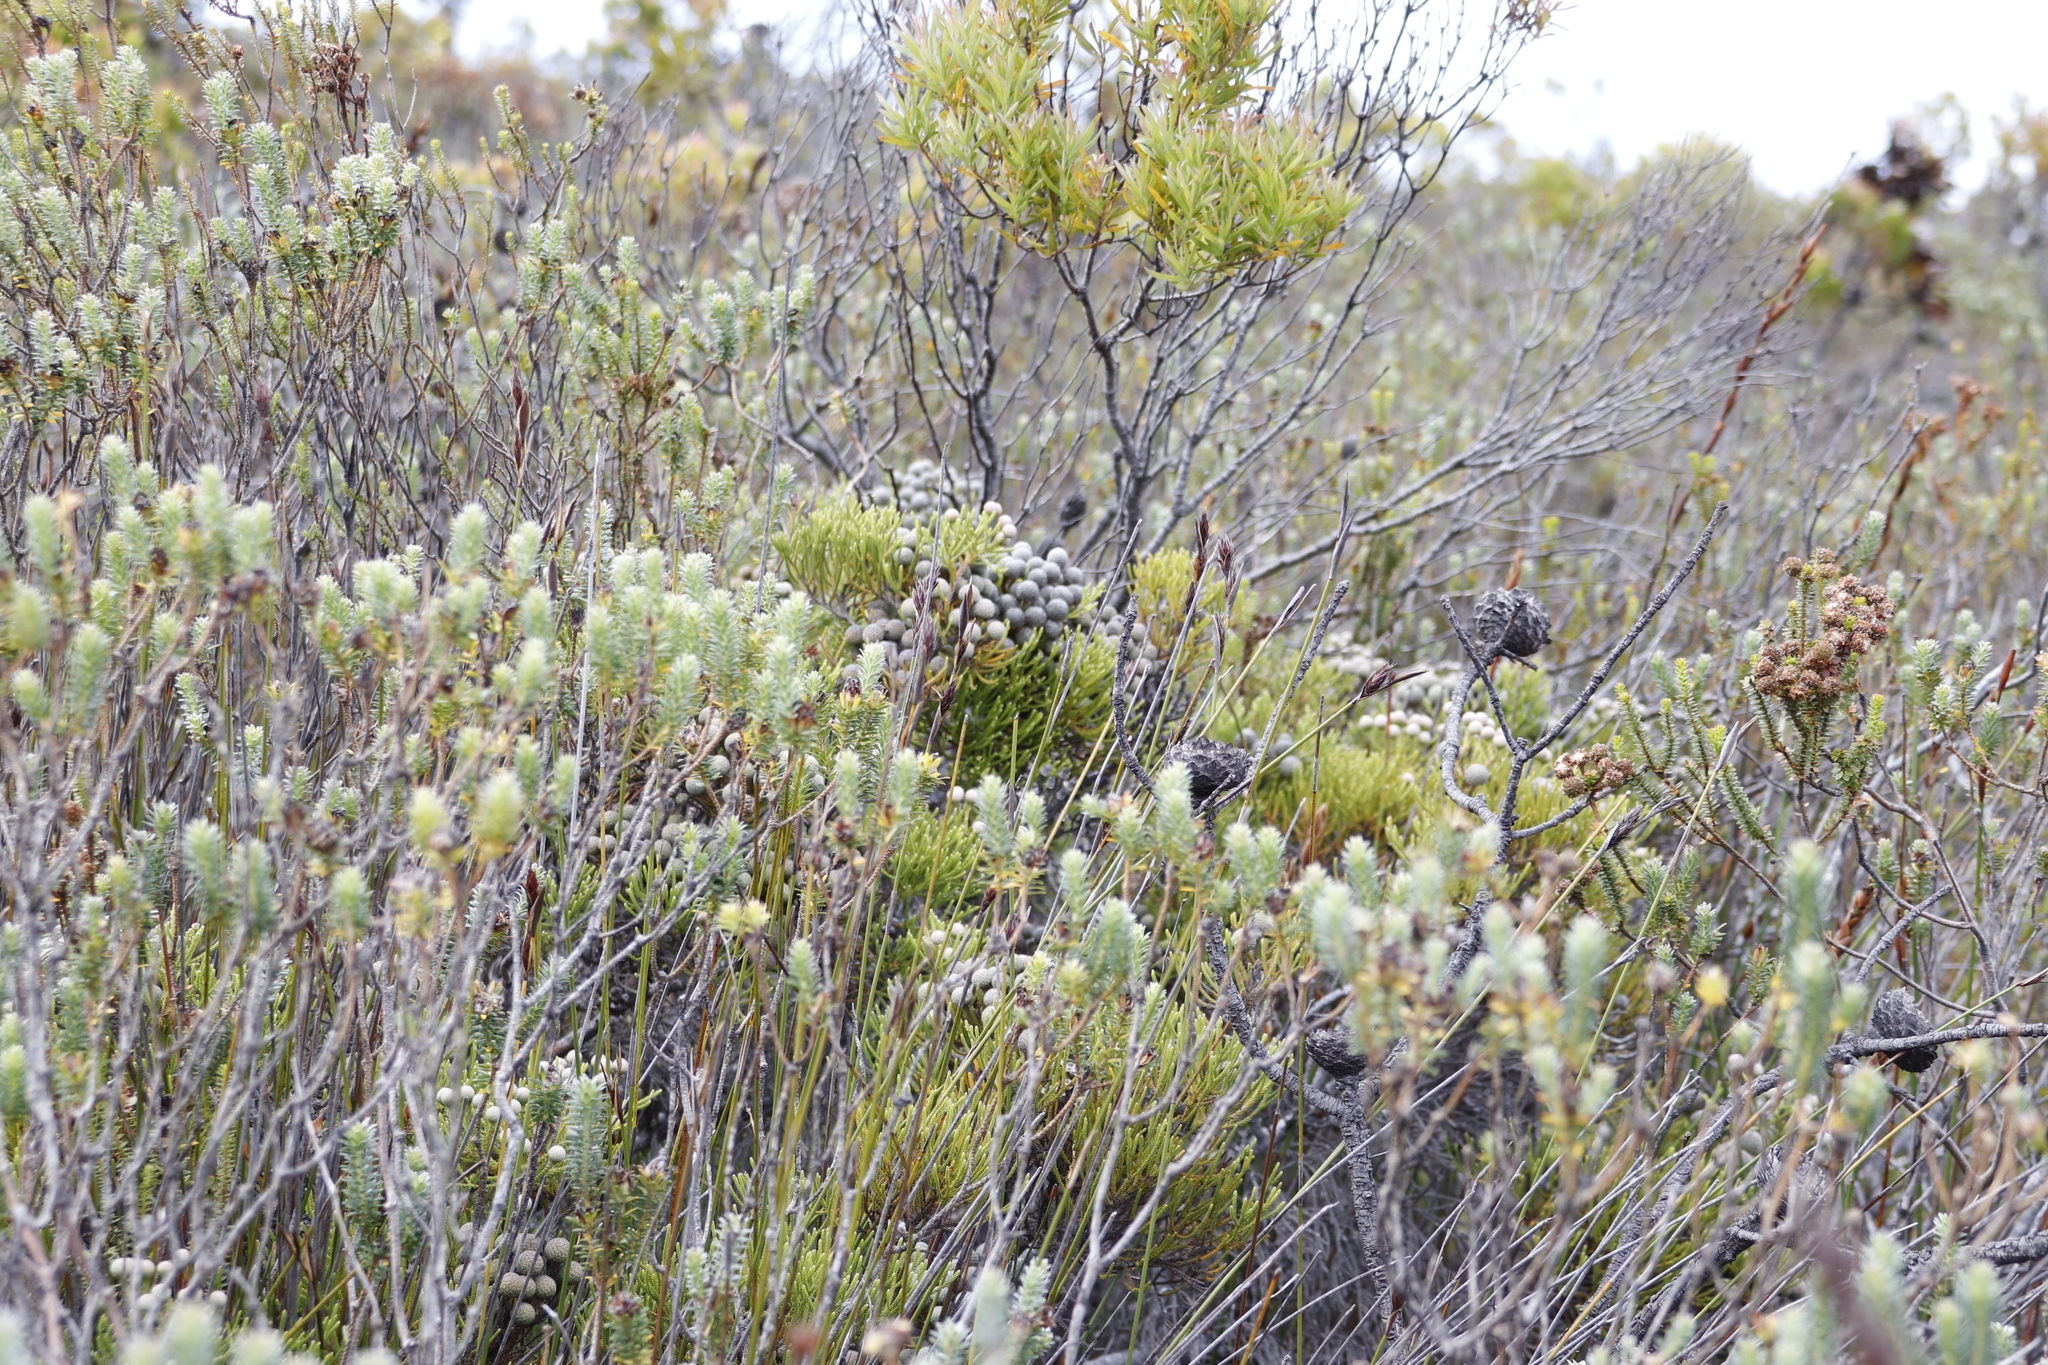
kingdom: Plantae
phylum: Tracheophyta
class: Magnoliopsida
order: Bruniales
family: Bruniaceae
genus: Brunia
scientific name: Brunia noduliflora
